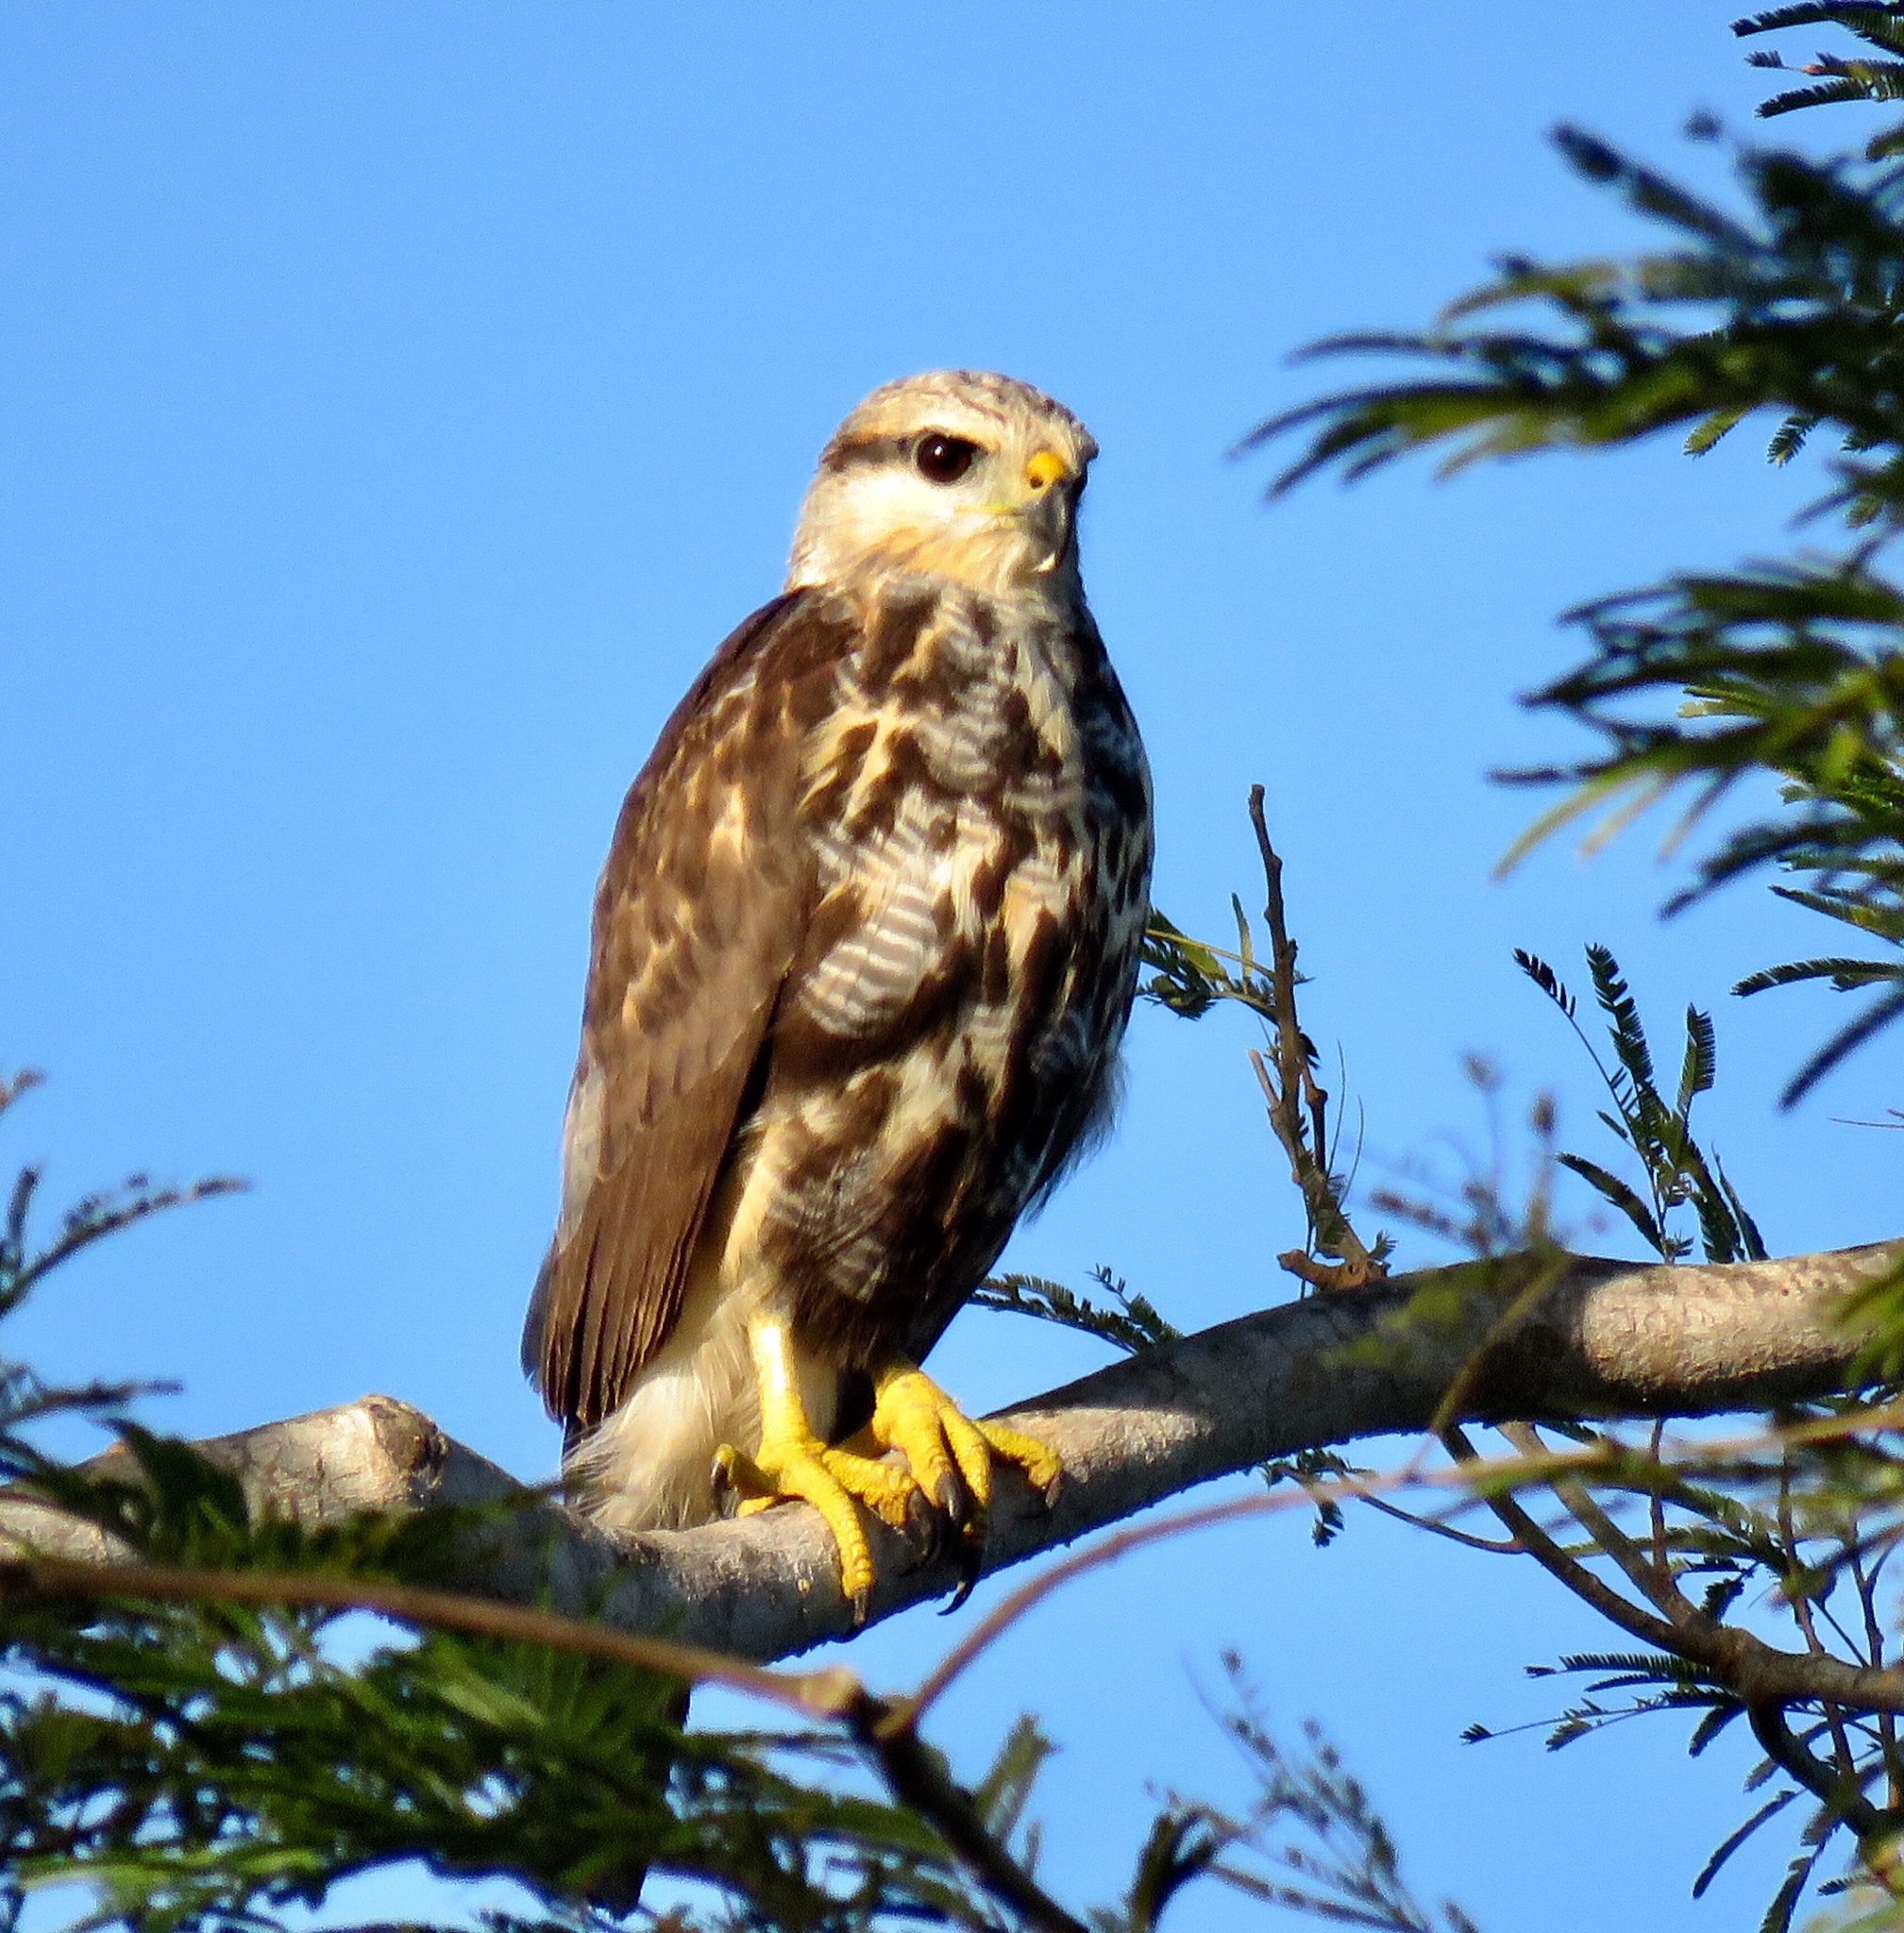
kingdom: Animalia
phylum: Chordata
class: Aves
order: Accipitriformes
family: Accipitridae
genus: Buteo
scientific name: Buteo nitidus
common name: Grey-lined hawk
